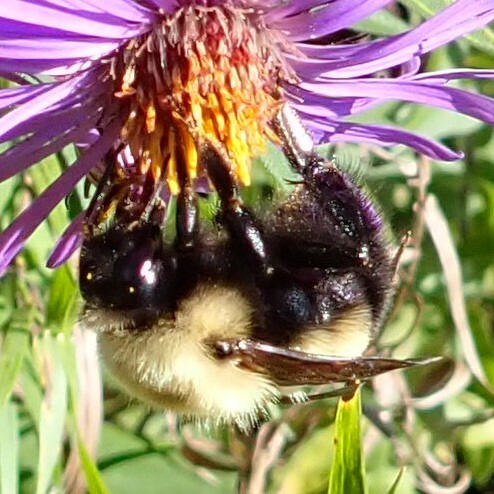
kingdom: Animalia
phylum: Arthropoda
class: Insecta
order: Hymenoptera
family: Apidae
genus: Bombus
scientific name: Bombus perplexus
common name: Confusing bumble bee
